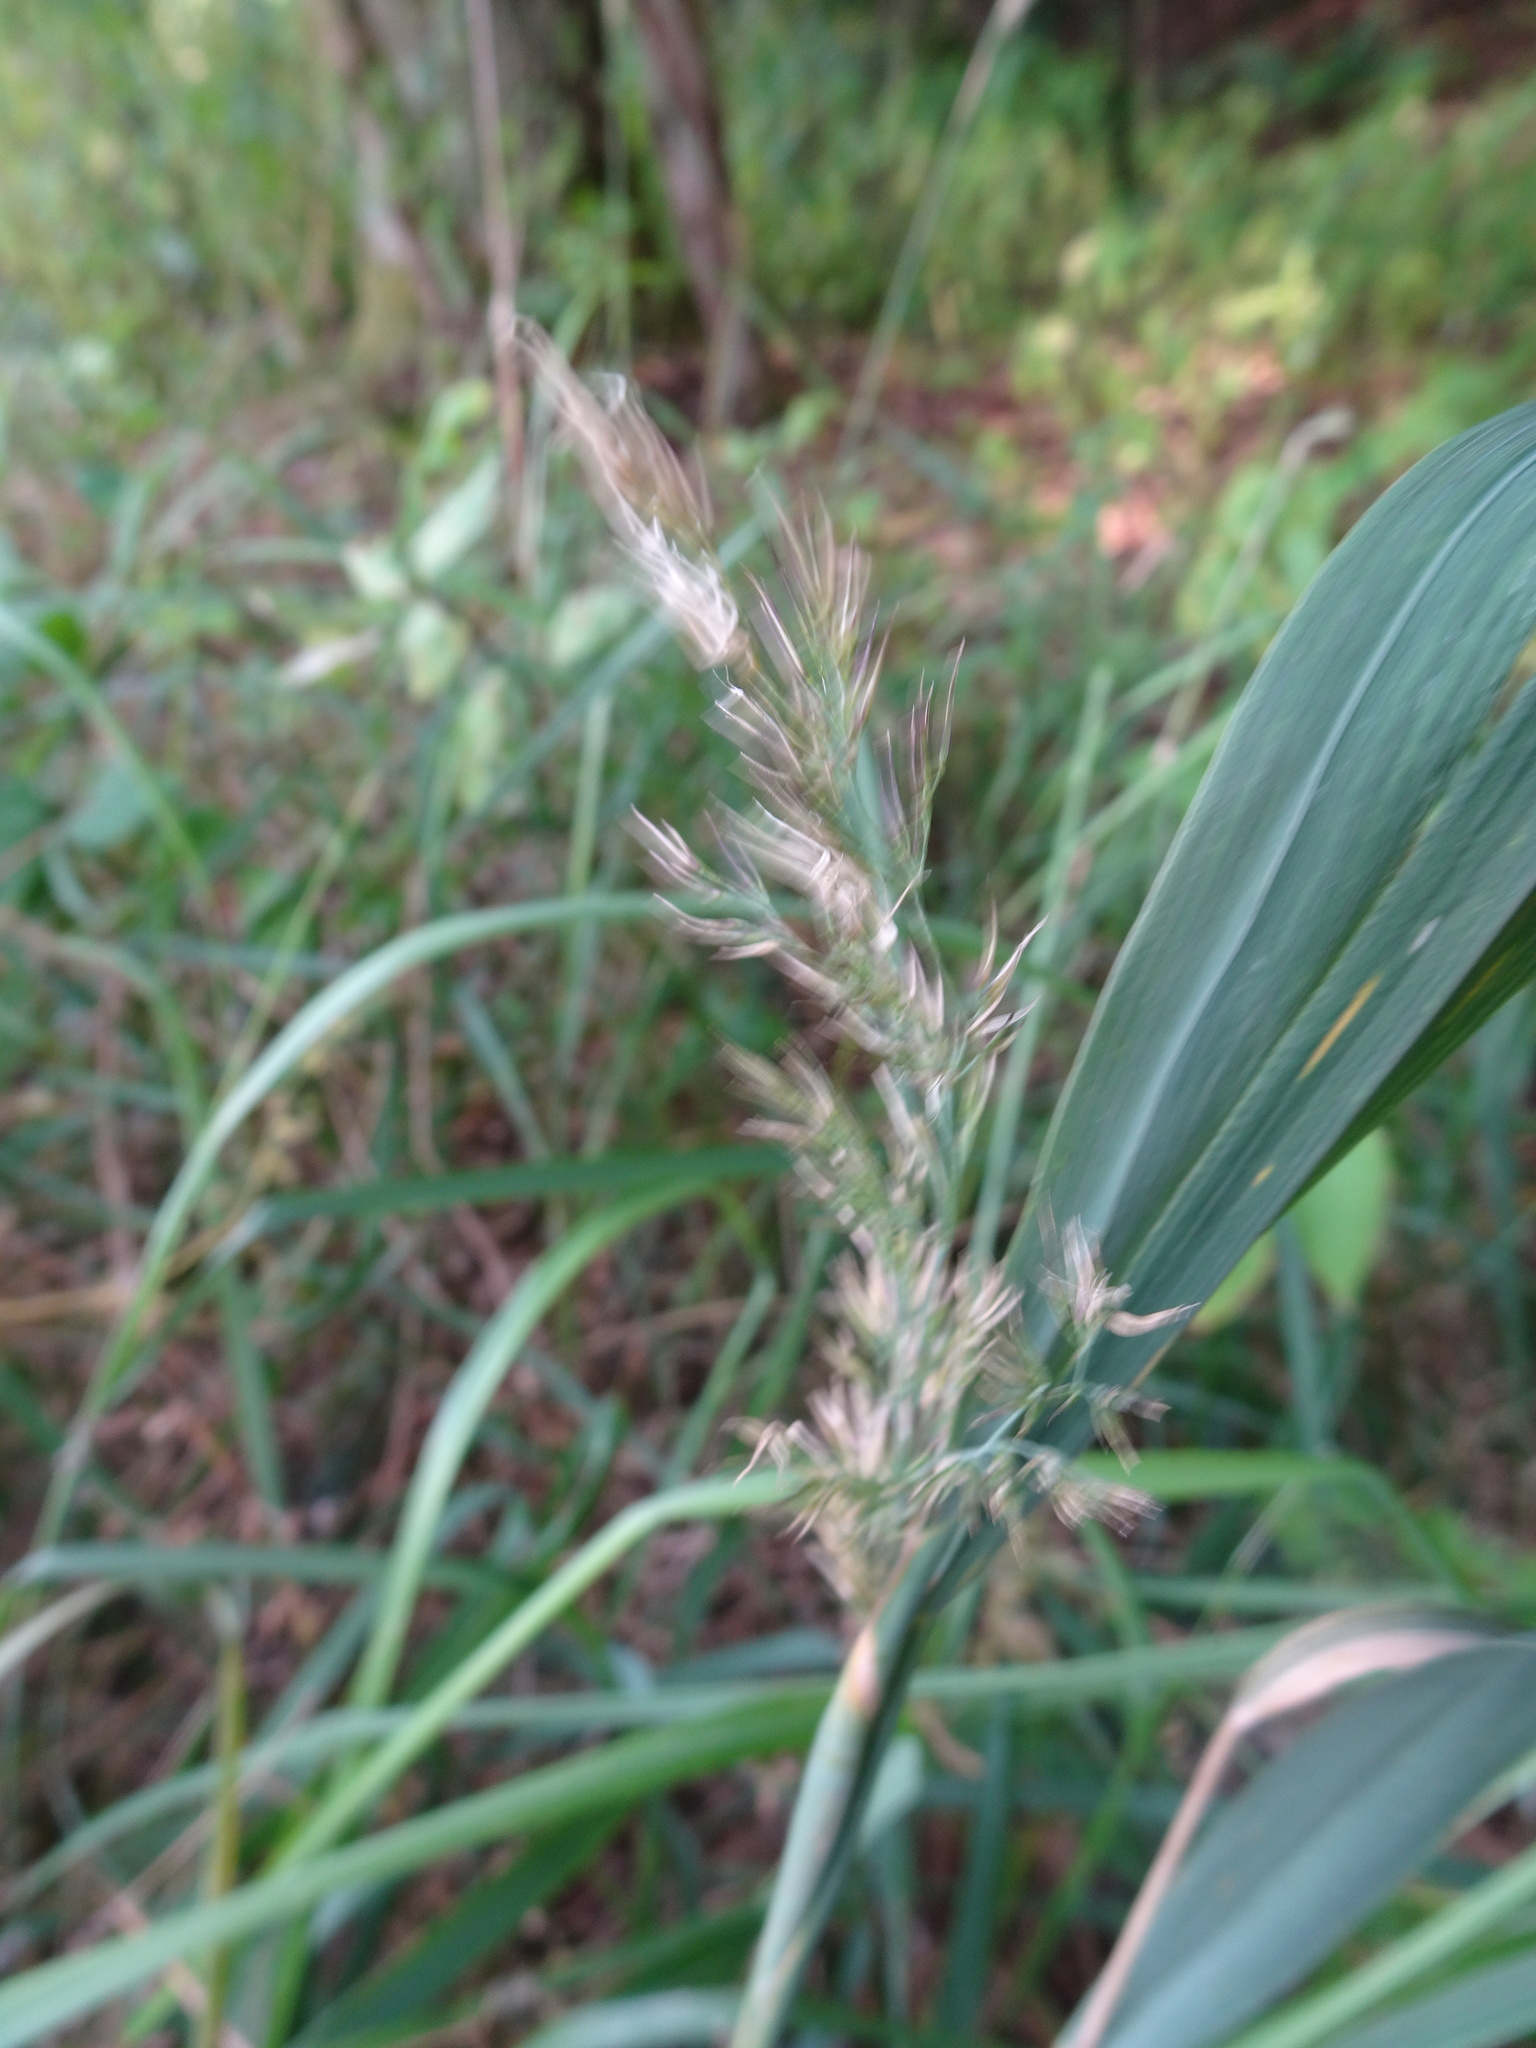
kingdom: Plantae
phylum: Tracheophyta
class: Liliopsida
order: Poales
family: Poaceae
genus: Calamagrostis
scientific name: Calamagrostis epigejos
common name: Wood small-reed
